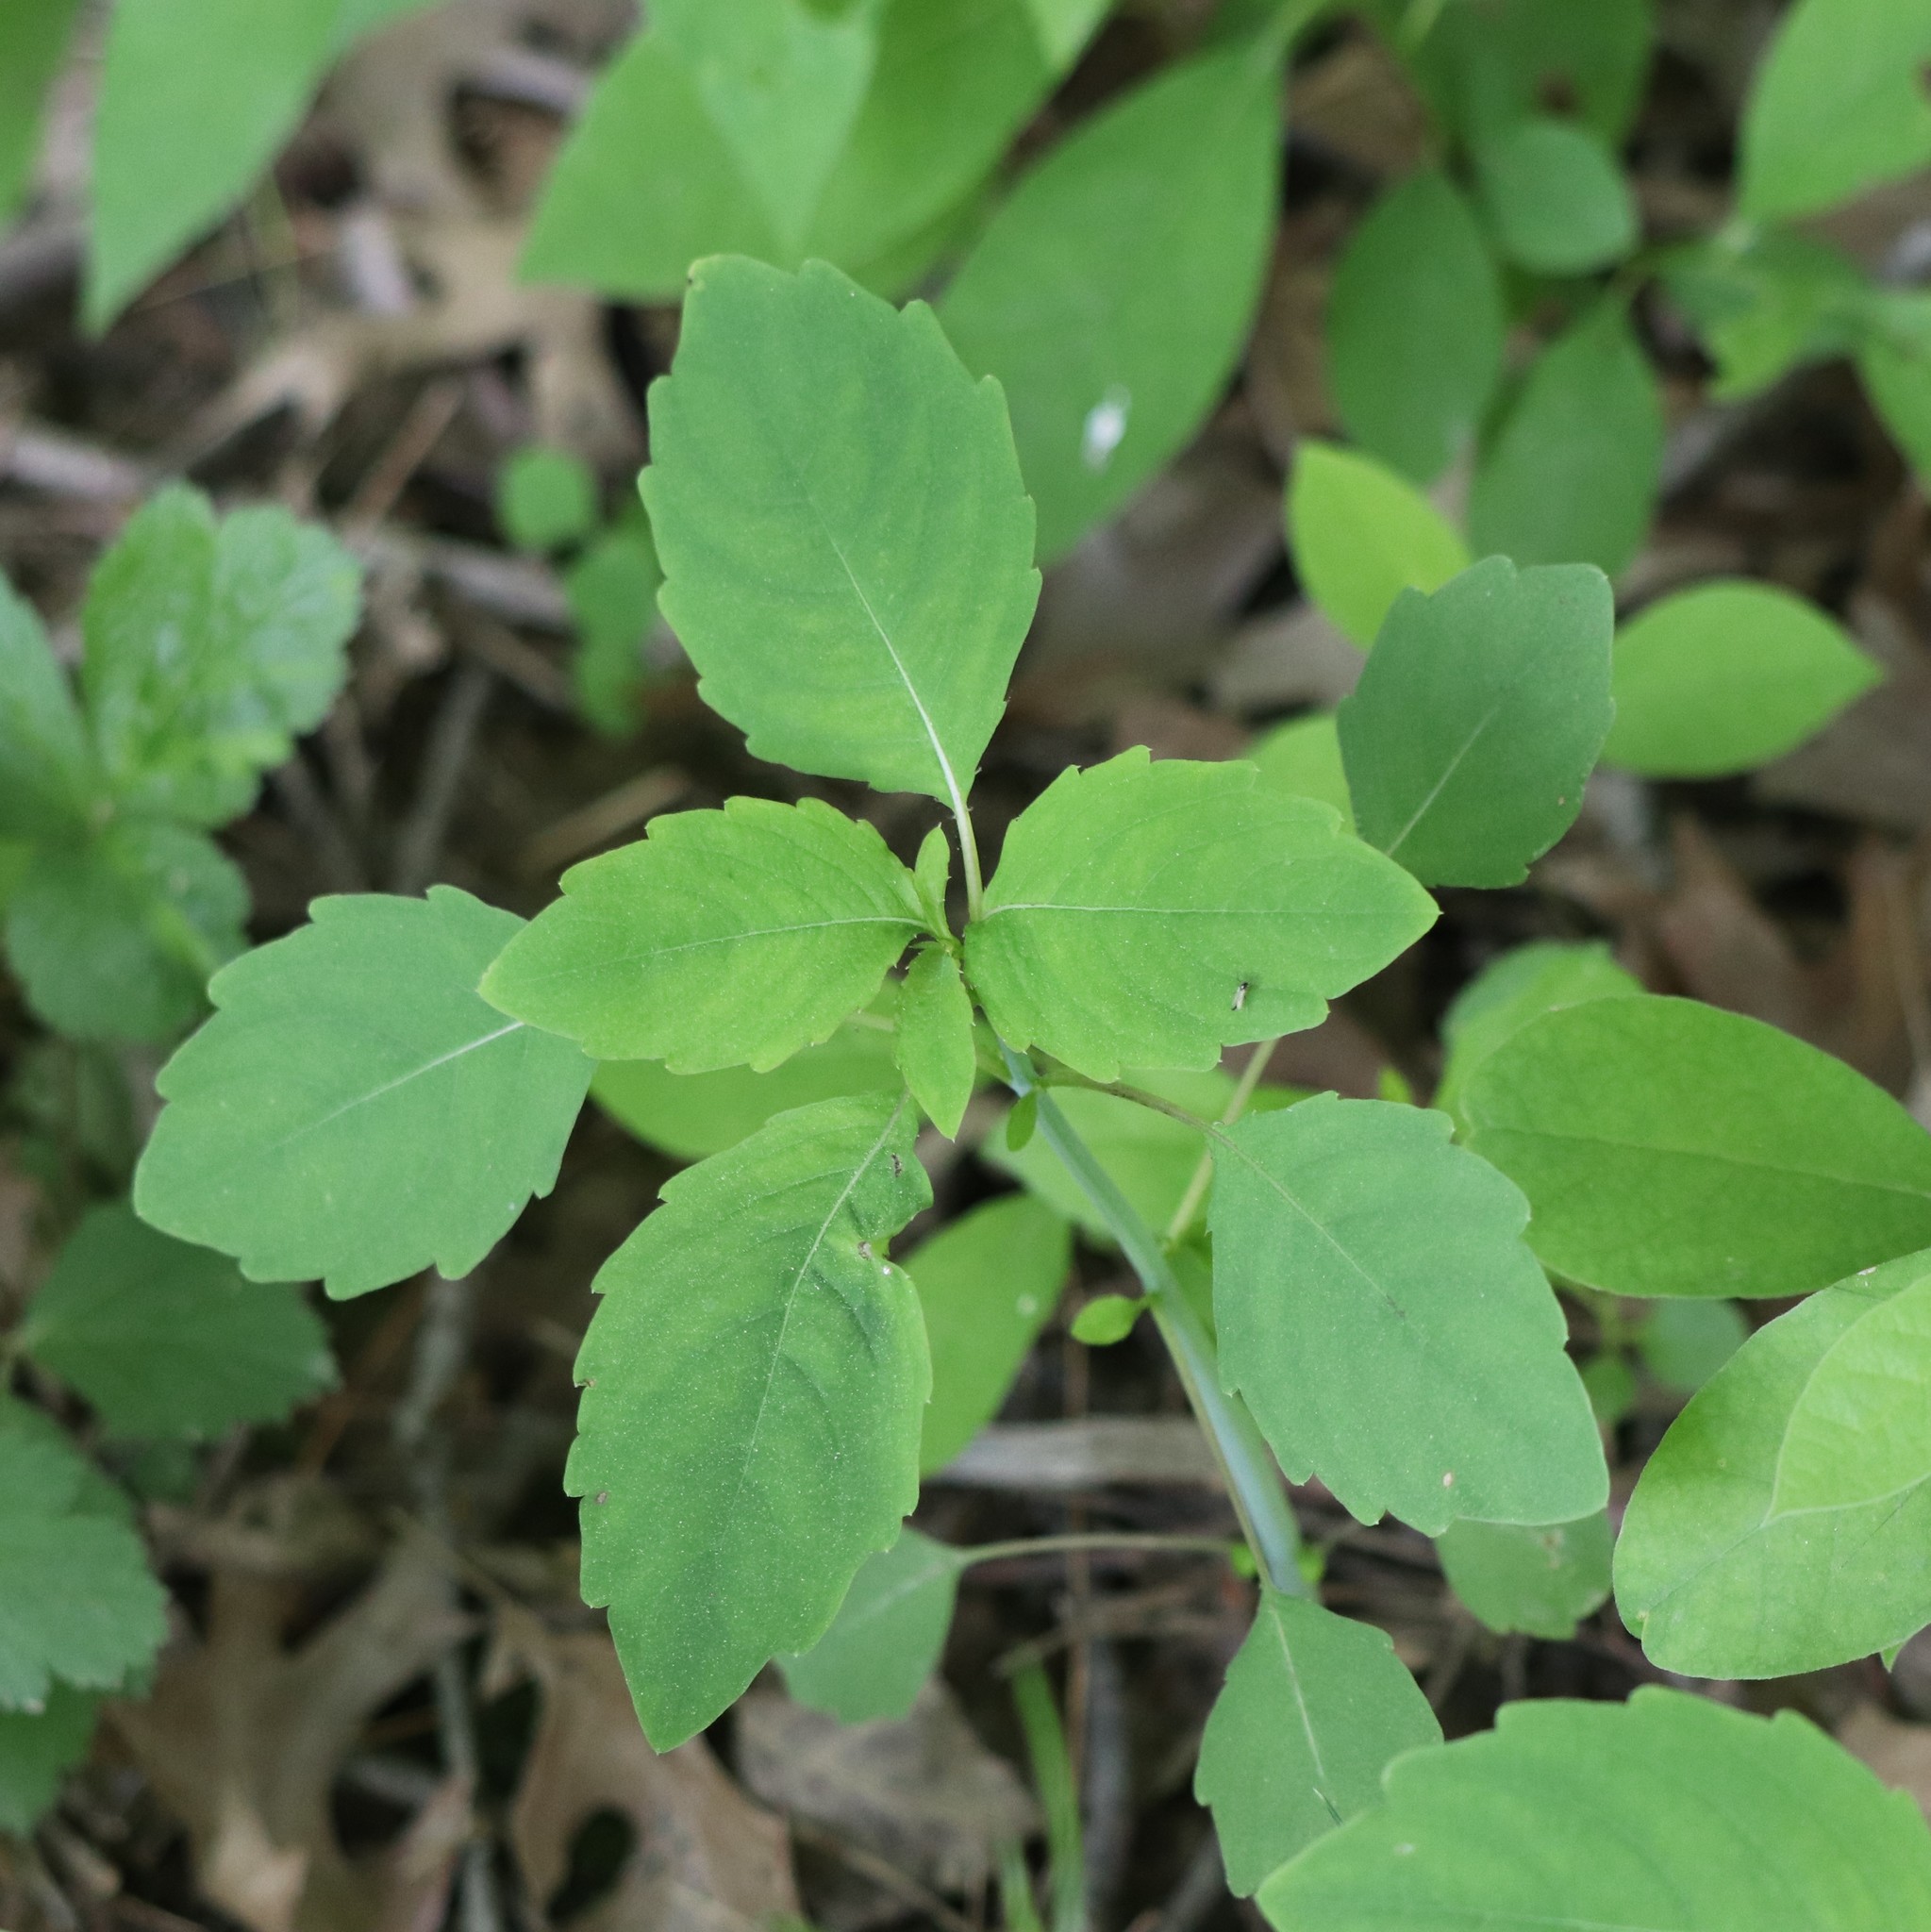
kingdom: Plantae
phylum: Tracheophyta
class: Magnoliopsida
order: Ericales
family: Balsaminaceae
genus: Impatiens
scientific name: Impatiens capensis
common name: Orange balsam
